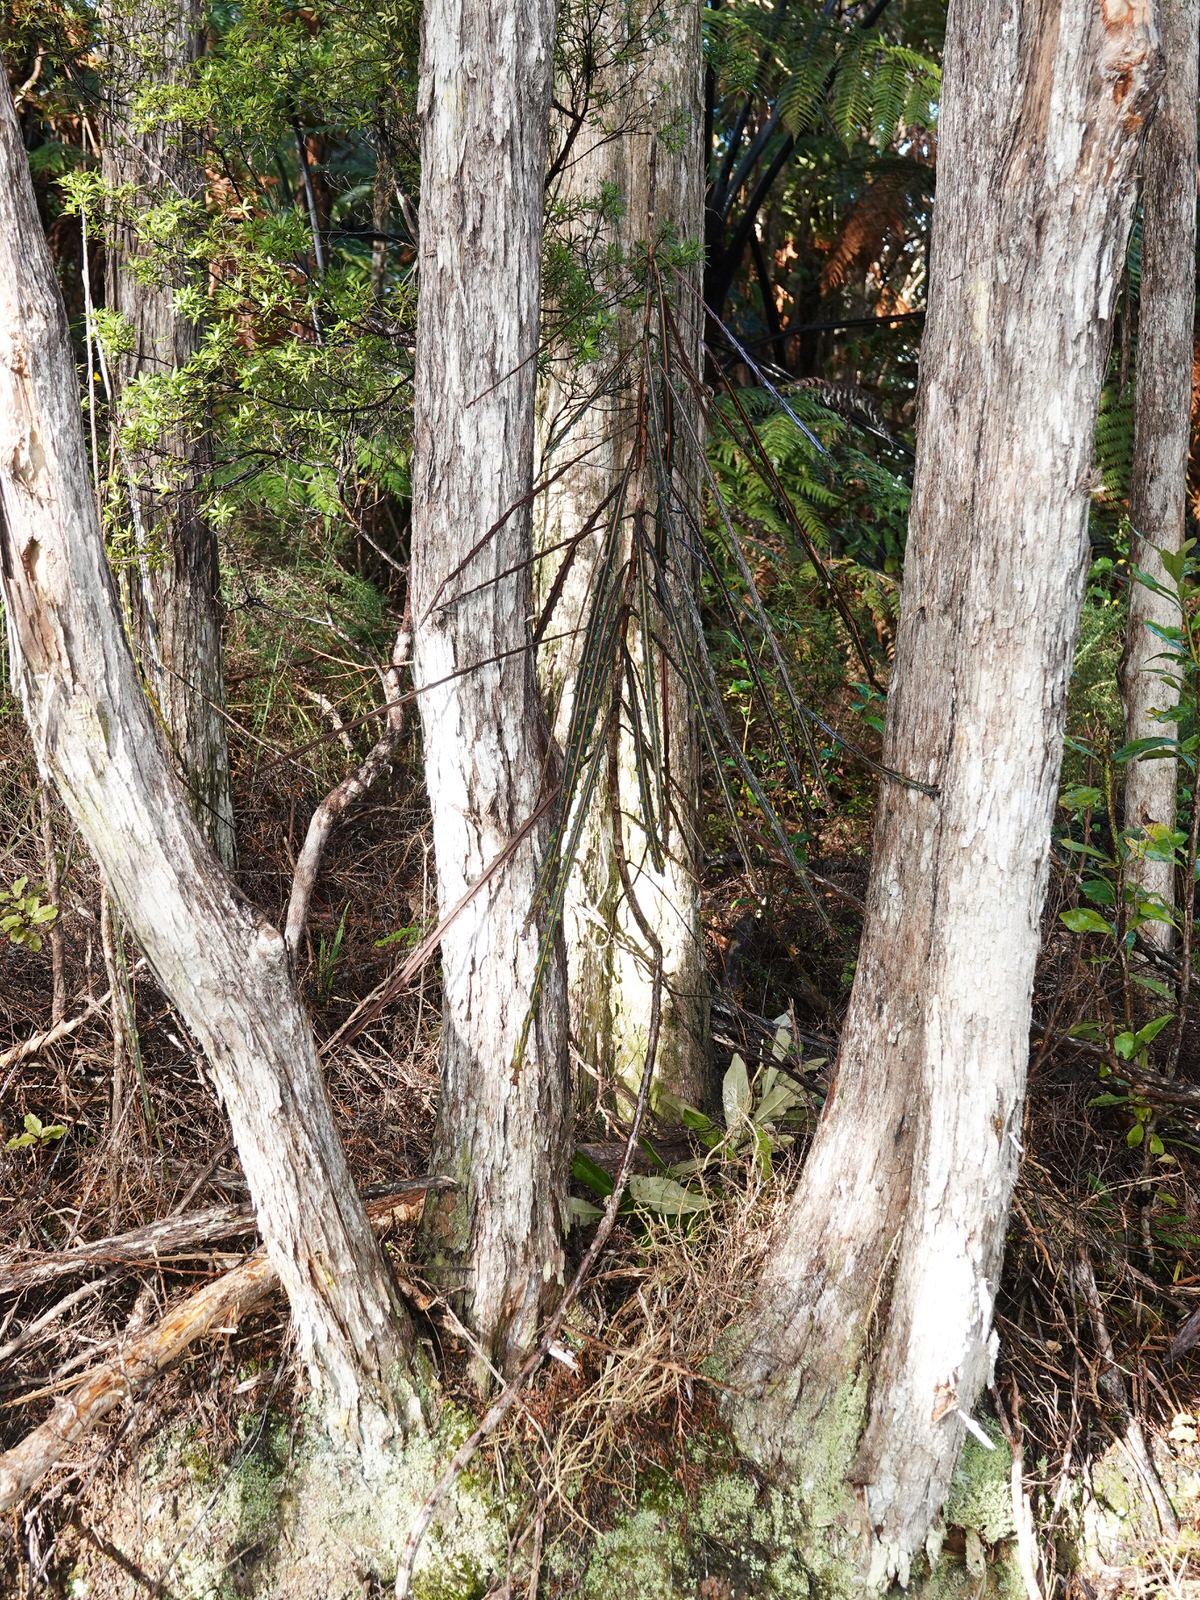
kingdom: Plantae
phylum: Tracheophyta
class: Magnoliopsida
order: Apiales
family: Araliaceae
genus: Pseudopanax
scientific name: Pseudopanax crassifolius
